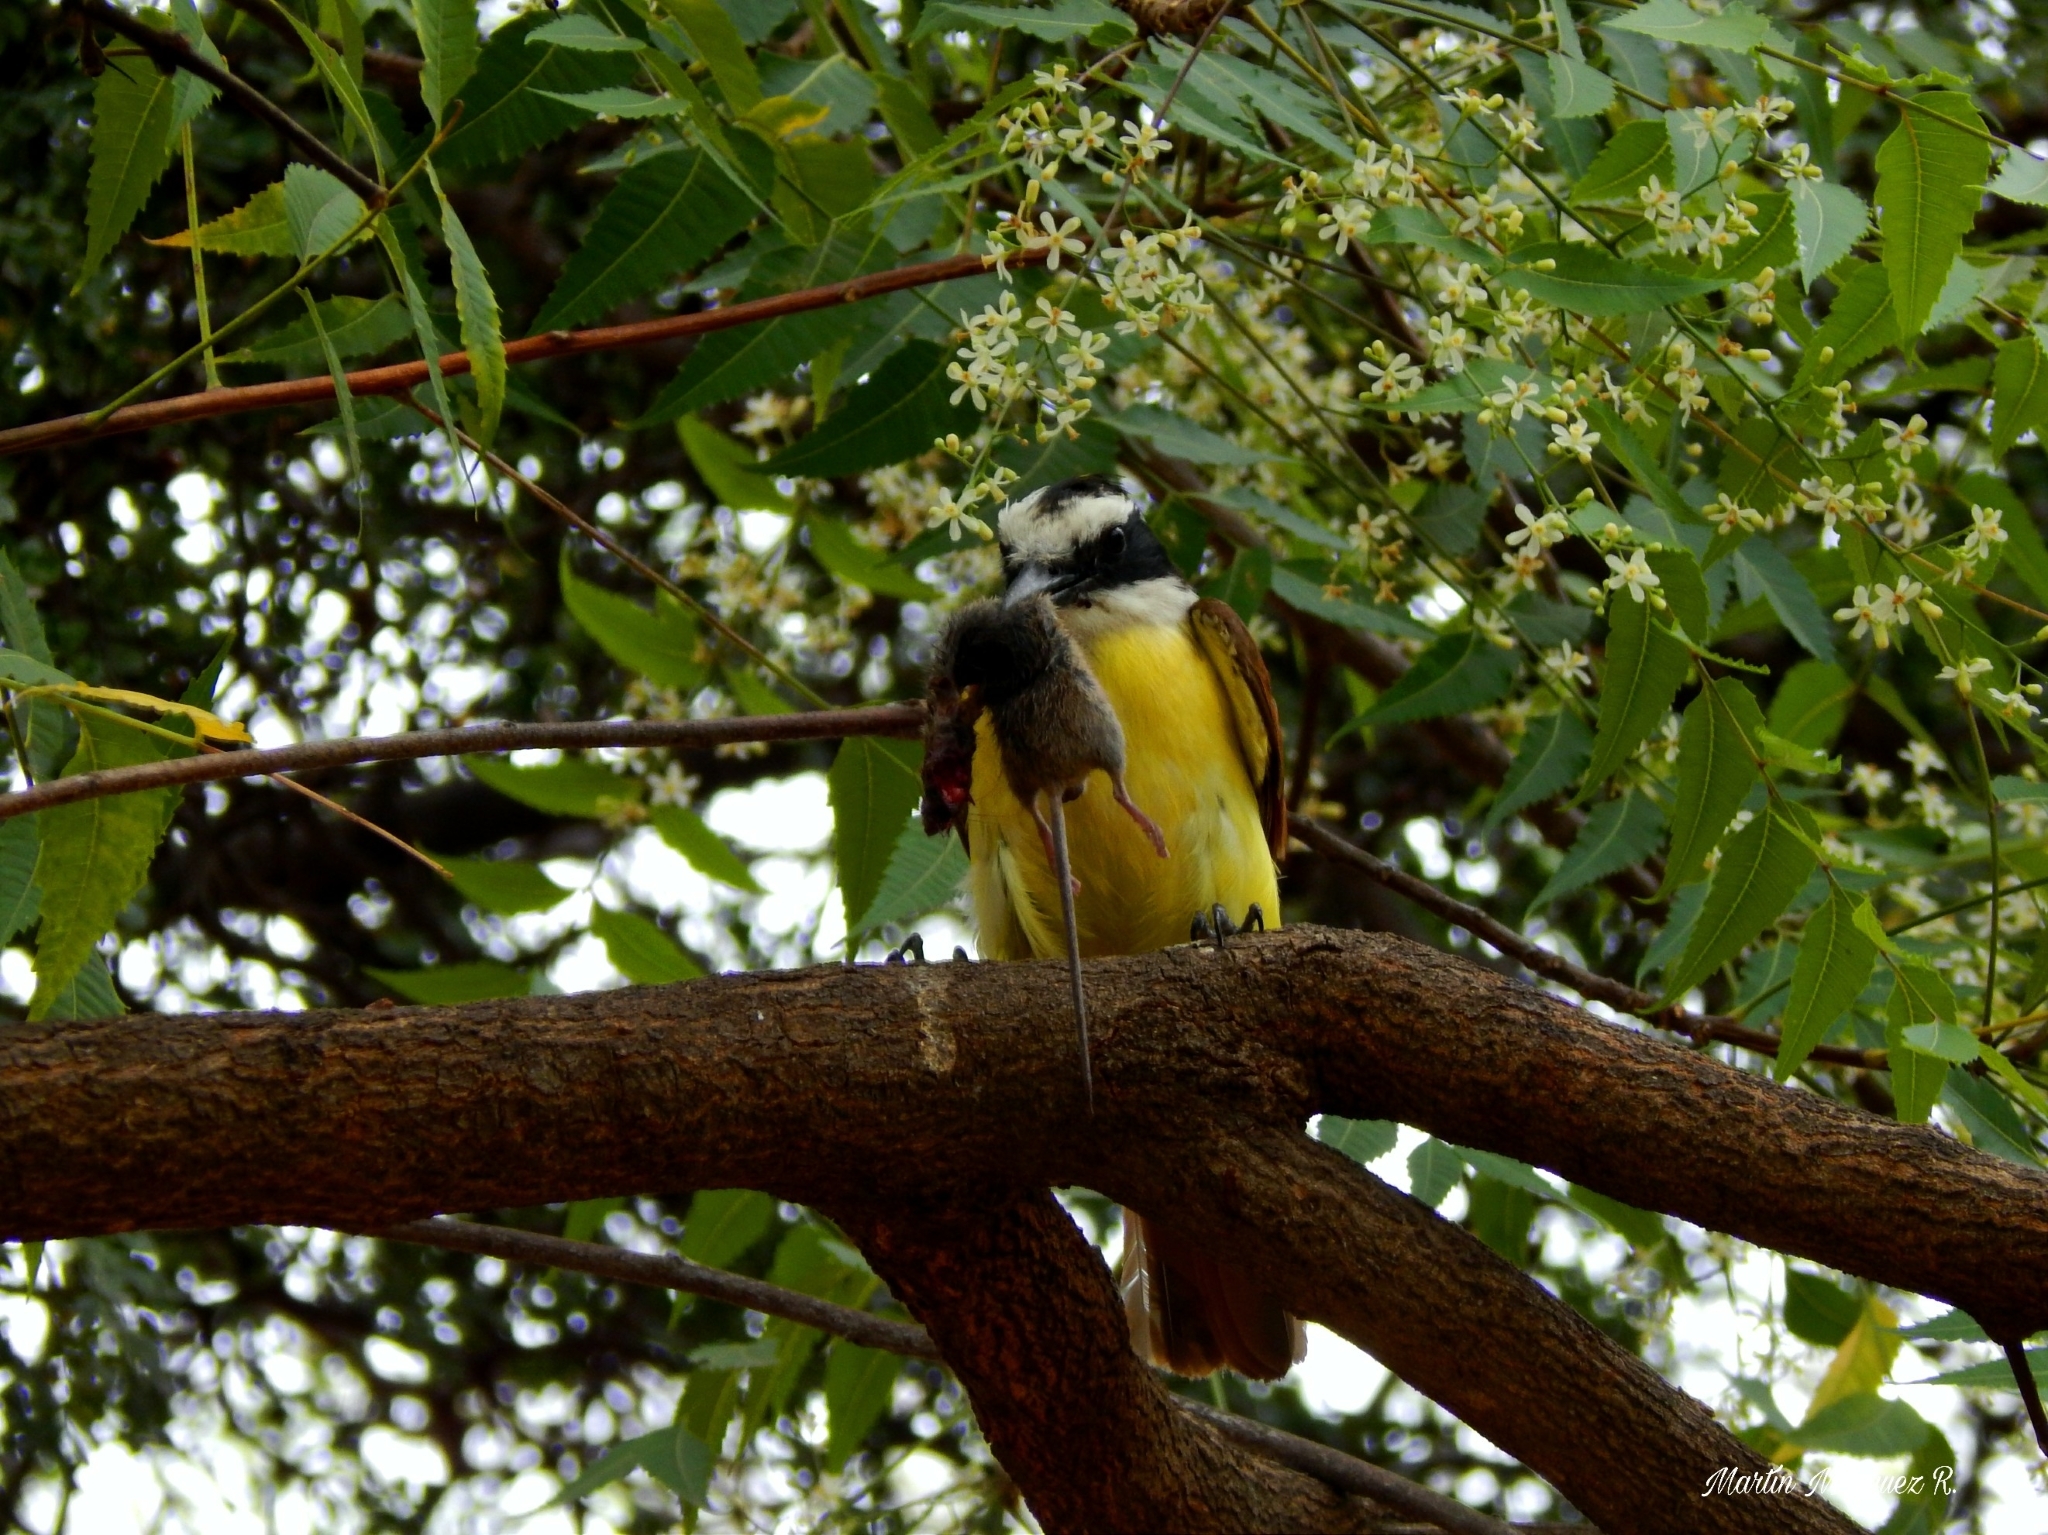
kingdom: Animalia
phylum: Chordata
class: Aves
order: Passeriformes
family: Tyrannidae
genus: Pitangus
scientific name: Pitangus sulphuratus
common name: Great kiskadee
